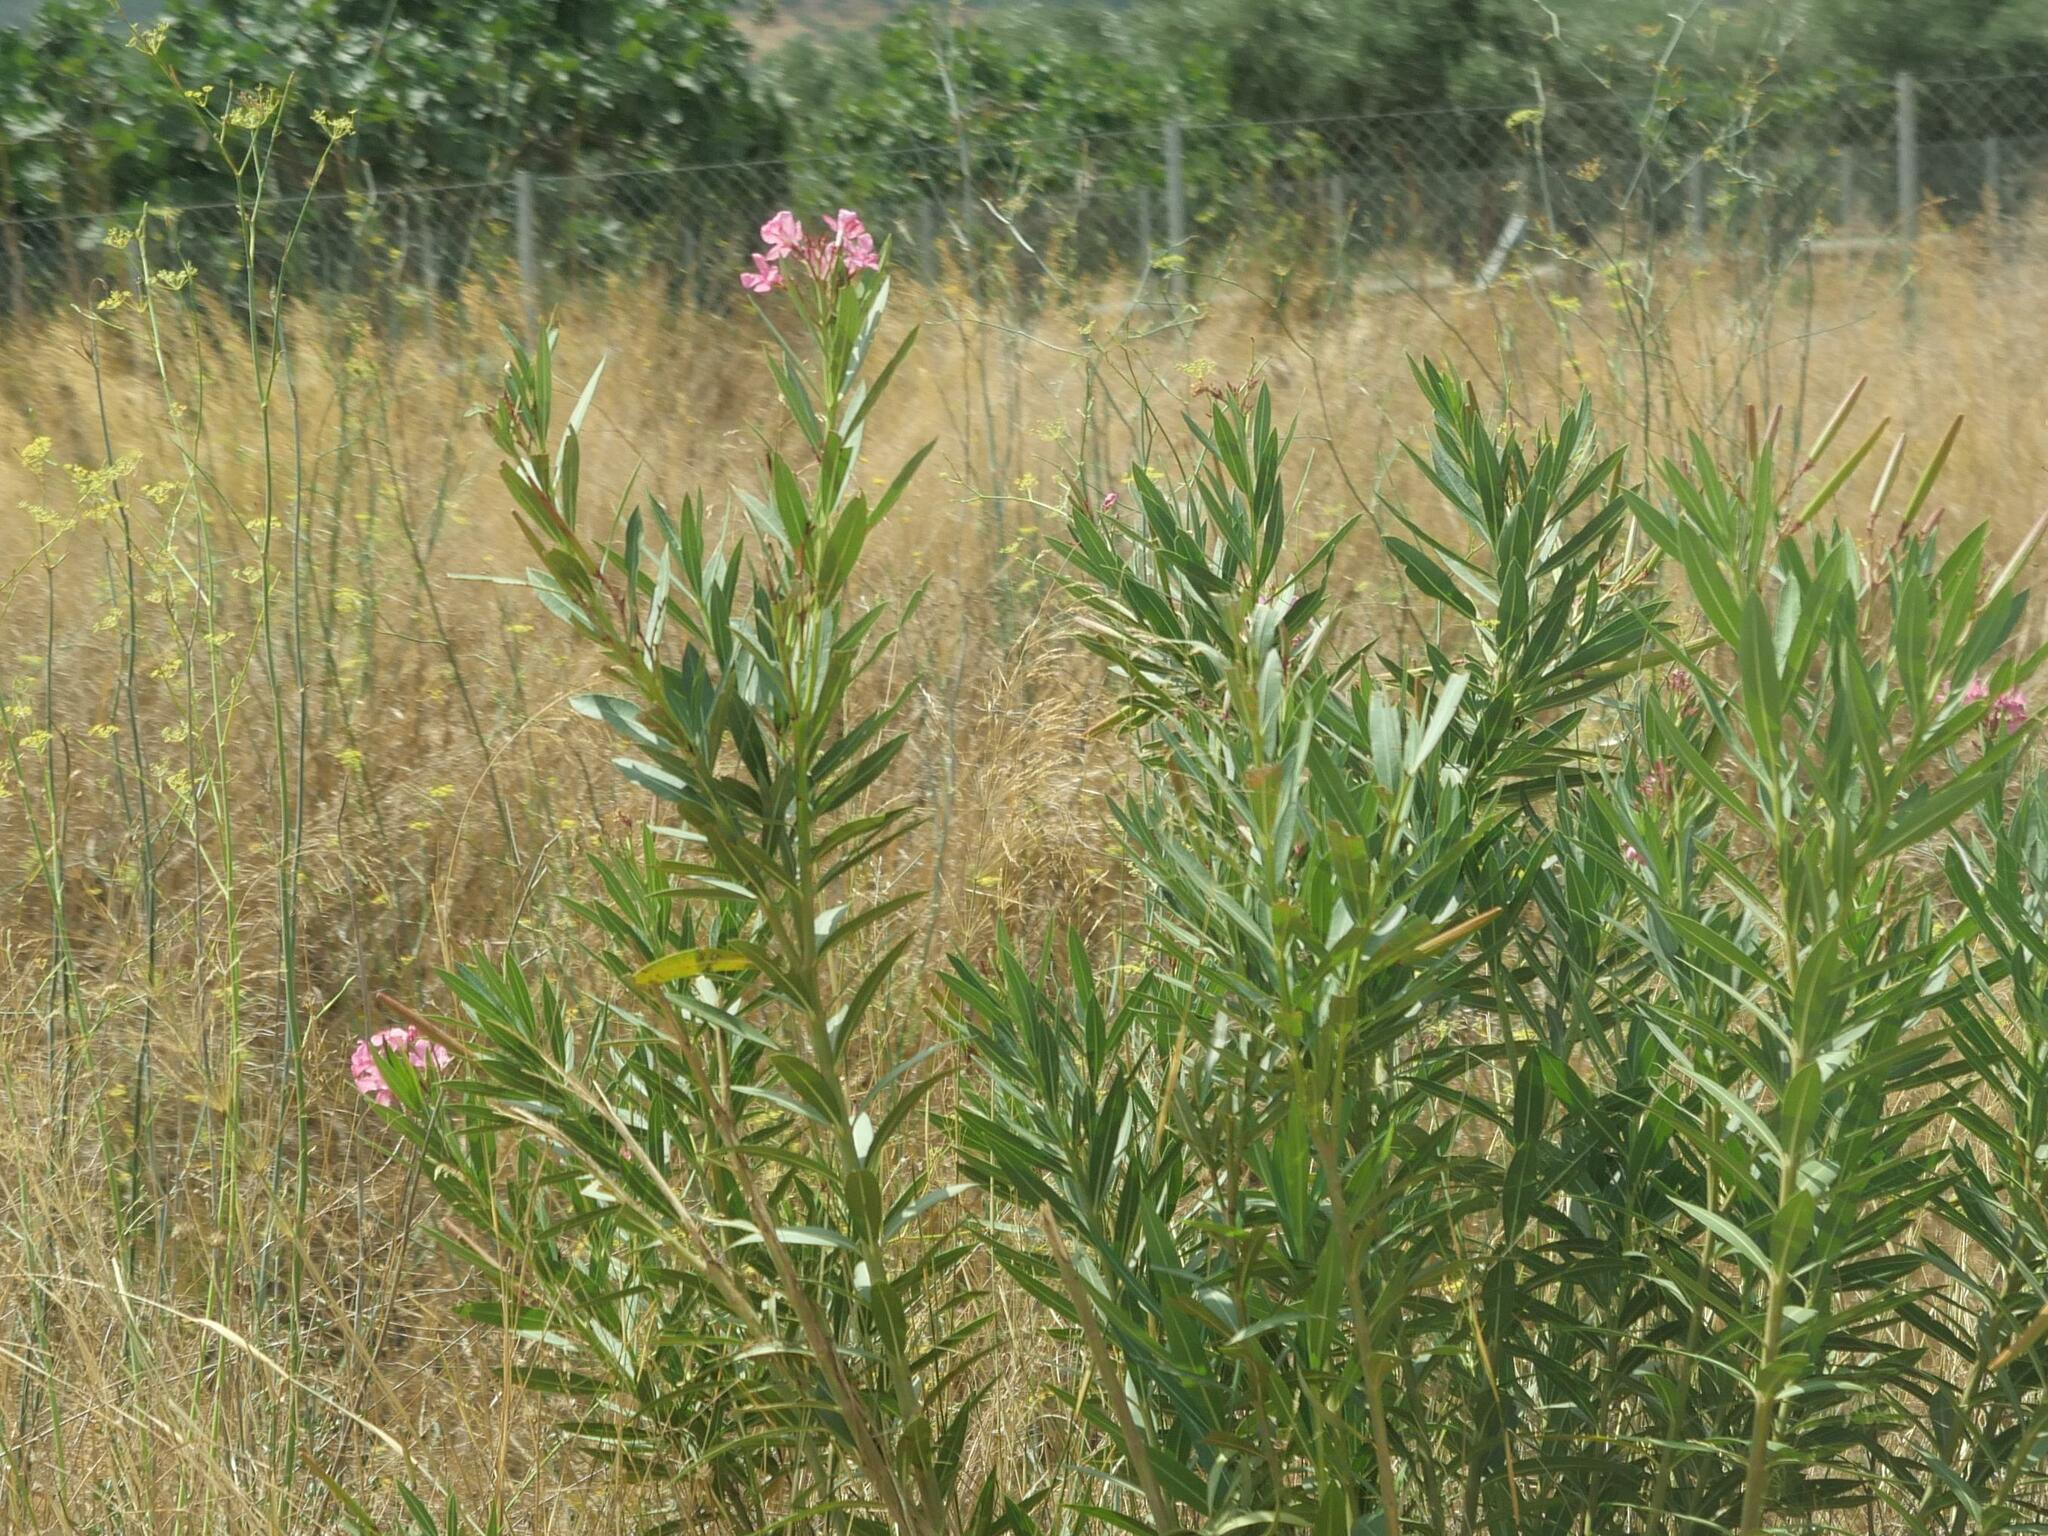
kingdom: Plantae
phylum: Tracheophyta
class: Magnoliopsida
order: Gentianales
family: Apocynaceae
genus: Nerium
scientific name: Nerium oleander
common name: Oleander
